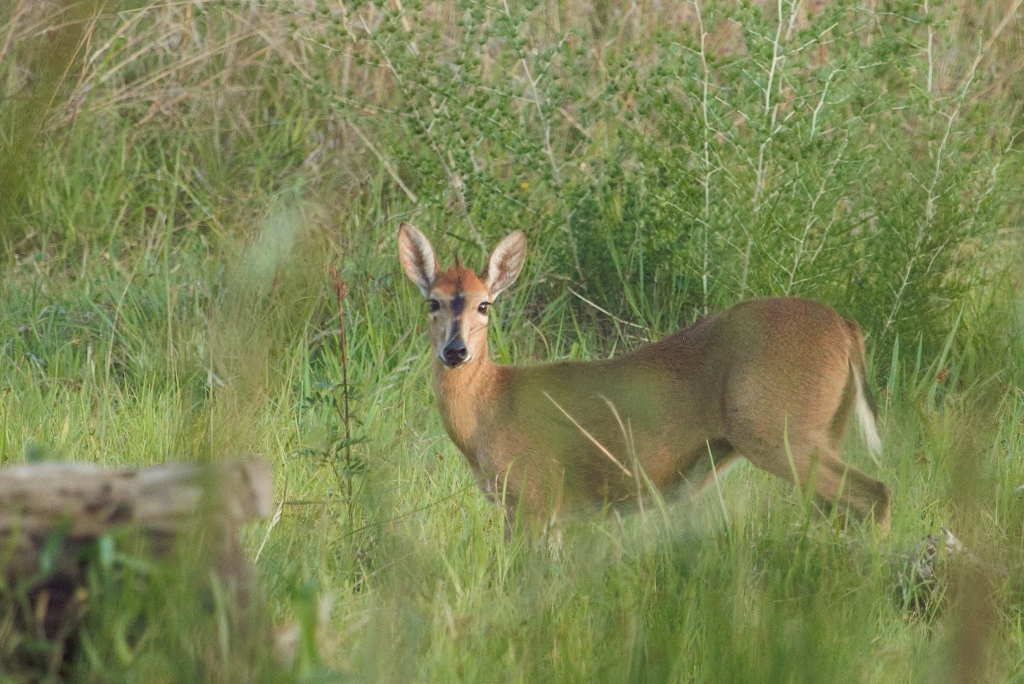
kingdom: Animalia
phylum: Chordata
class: Mammalia
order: Artiodactyla
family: Bovidae
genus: Sylvicapra
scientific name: Sylvicapra grimmia
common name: Bush duiker
